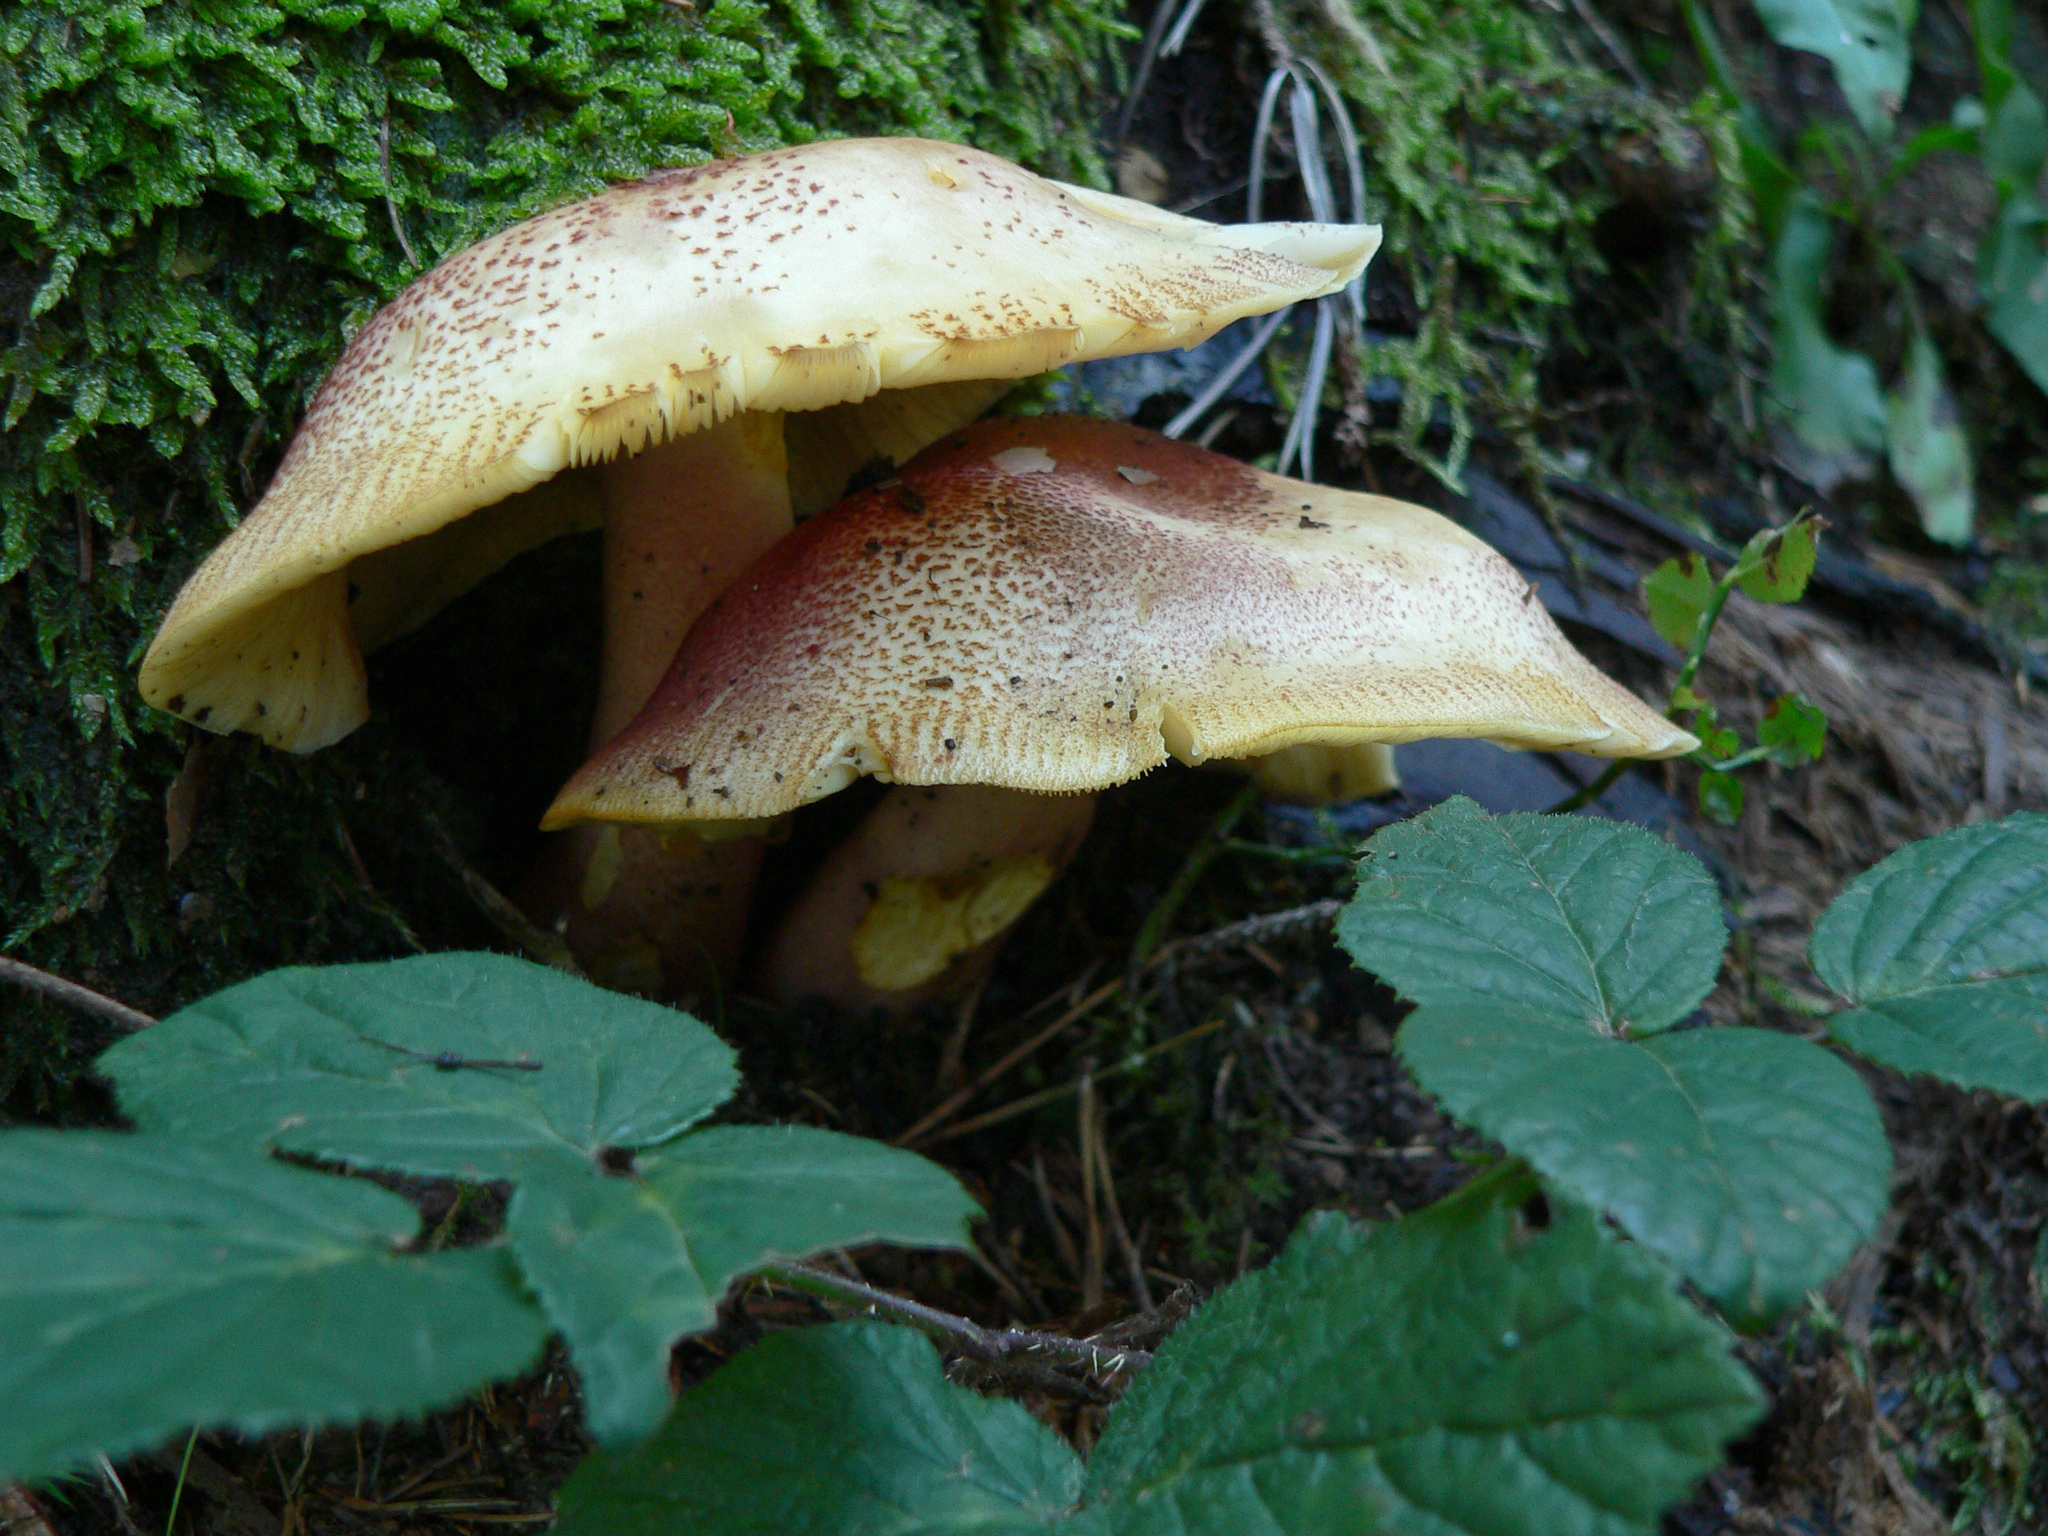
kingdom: Fungi
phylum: Basidiomycota
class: Agaricomycetes
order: Agaricales
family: Tricholomataceae
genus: Tricholomopsis
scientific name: Tricholomopsis rutilans
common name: Plums and custard
